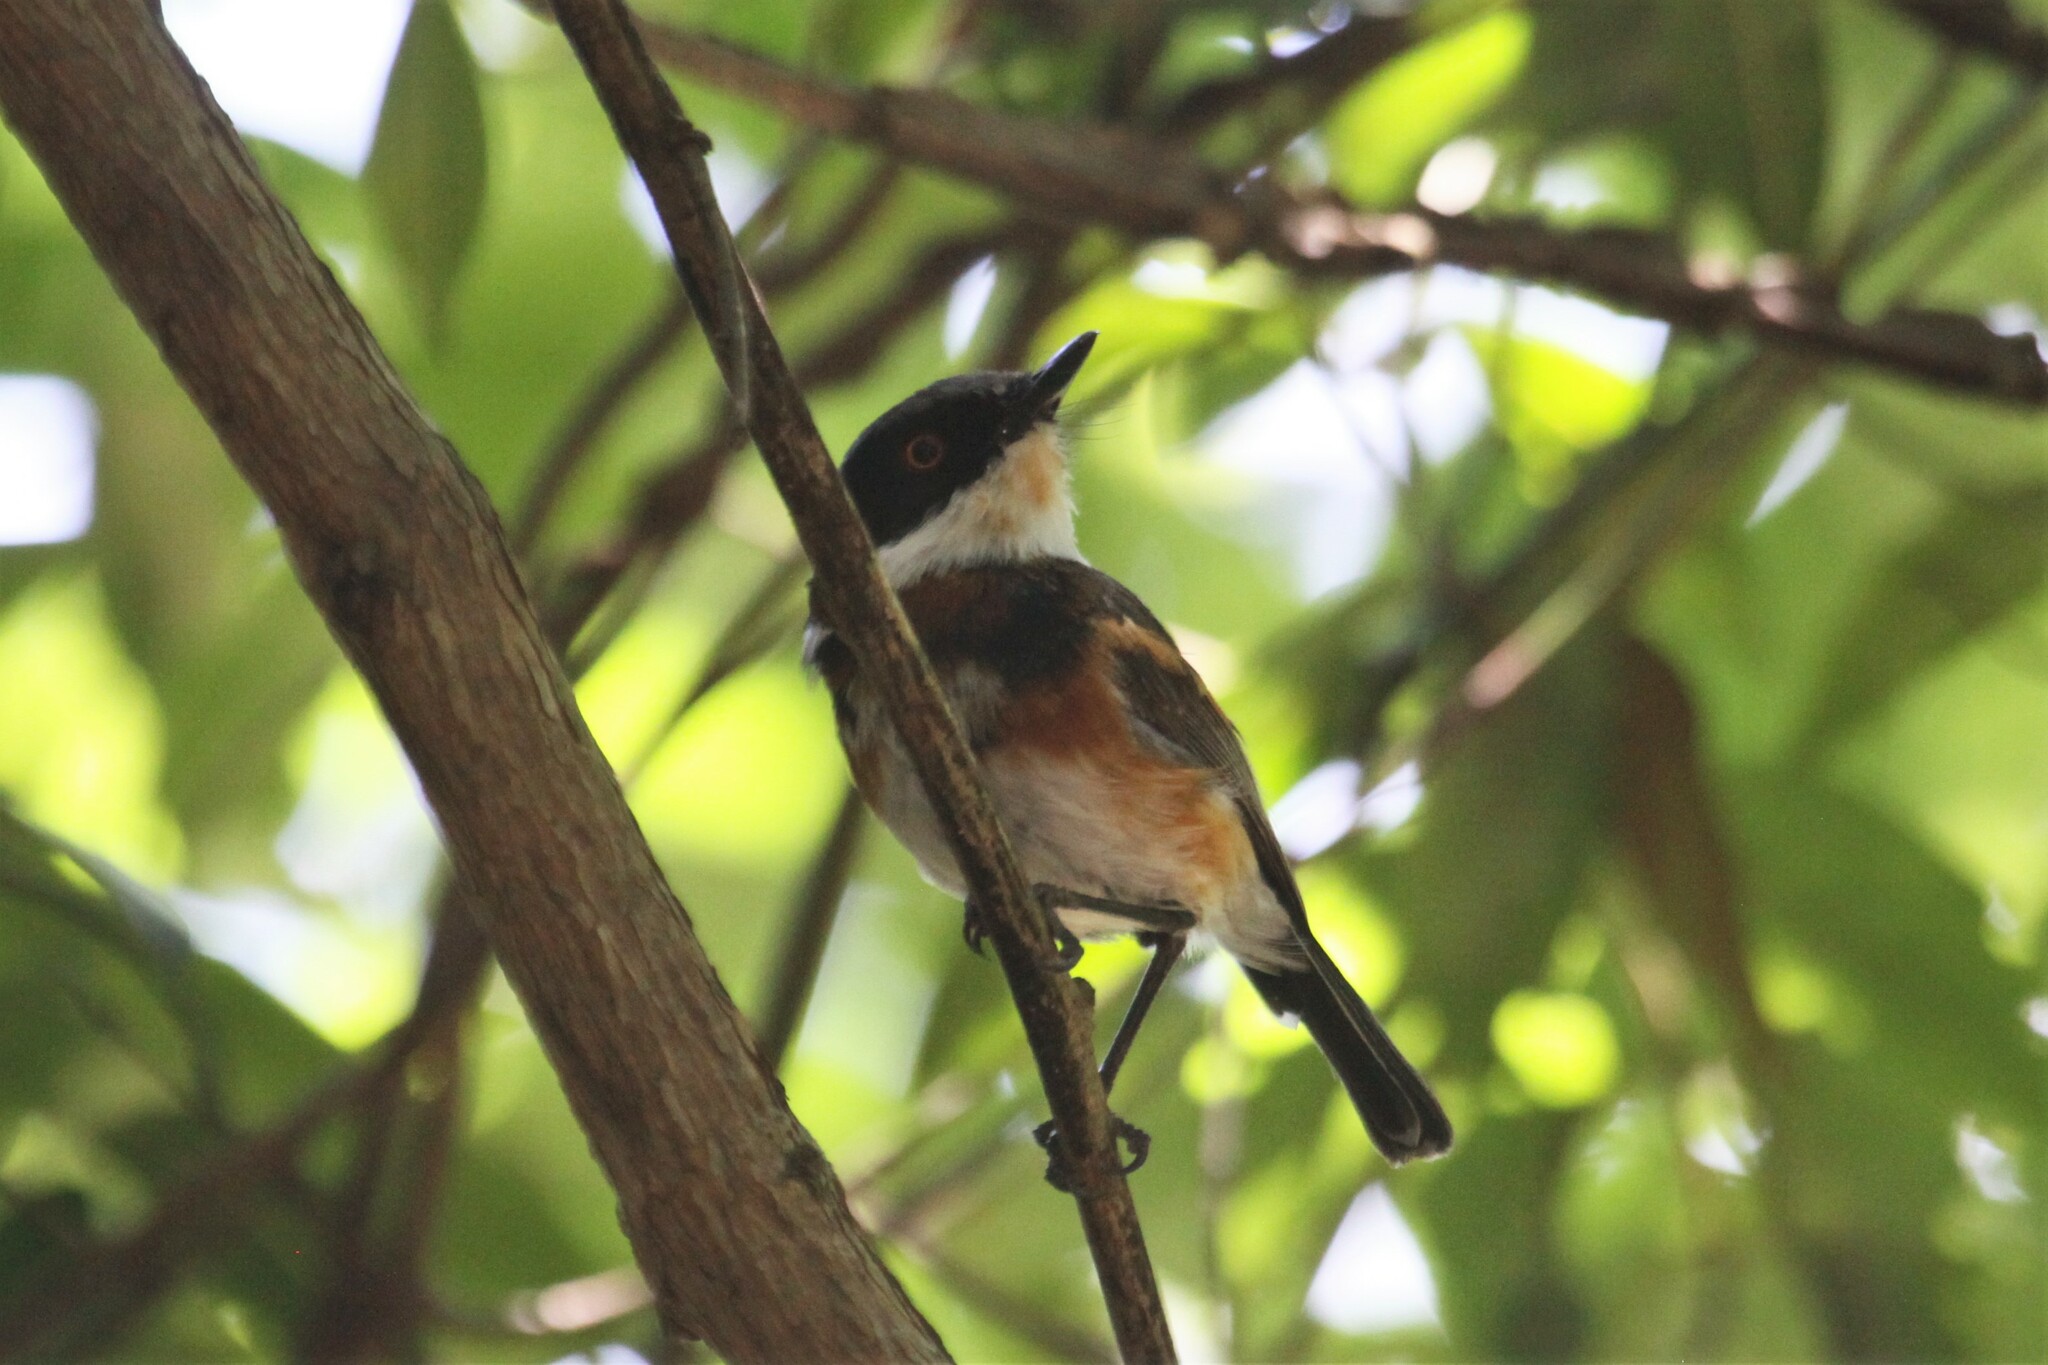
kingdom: Animalia
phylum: Chordata
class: Aves
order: Passeriformes
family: Platysteiridae
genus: Batis
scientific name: Batis capensis
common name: Cape batis
